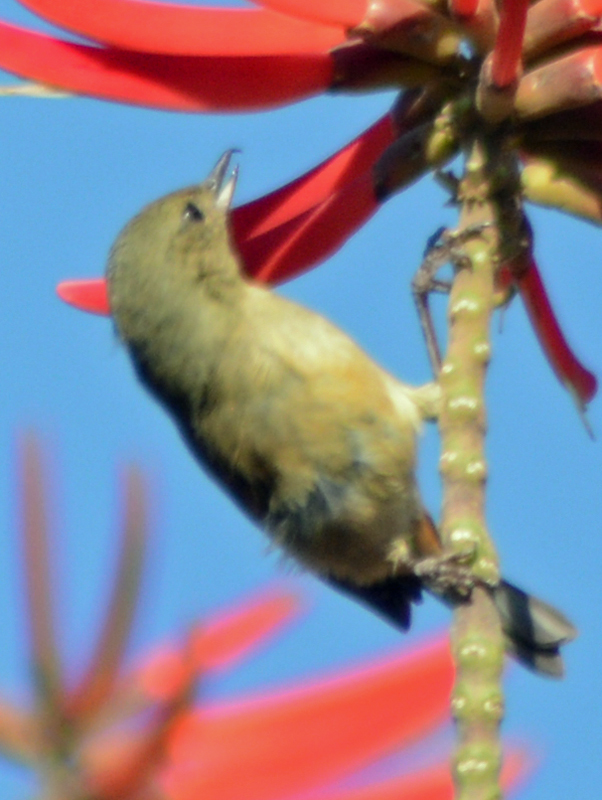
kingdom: Animalia
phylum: Chordata
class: Aves
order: Passeriformes
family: Thraupidae
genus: Diglossa
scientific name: Diglossa baritula
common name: Cinnamon-bellied flowerpiercer
